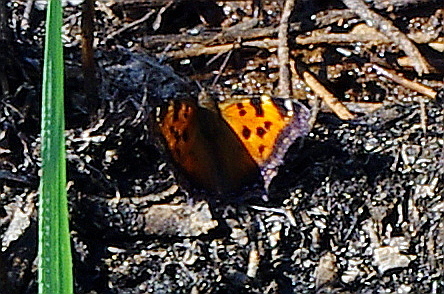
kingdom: Animalia
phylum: Arthropoda
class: Insecta
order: Lepidoptera
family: Nymphalidae
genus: Nymphalis
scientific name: Nymphalis xanthomelas
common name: Scarce tortoiseshell
